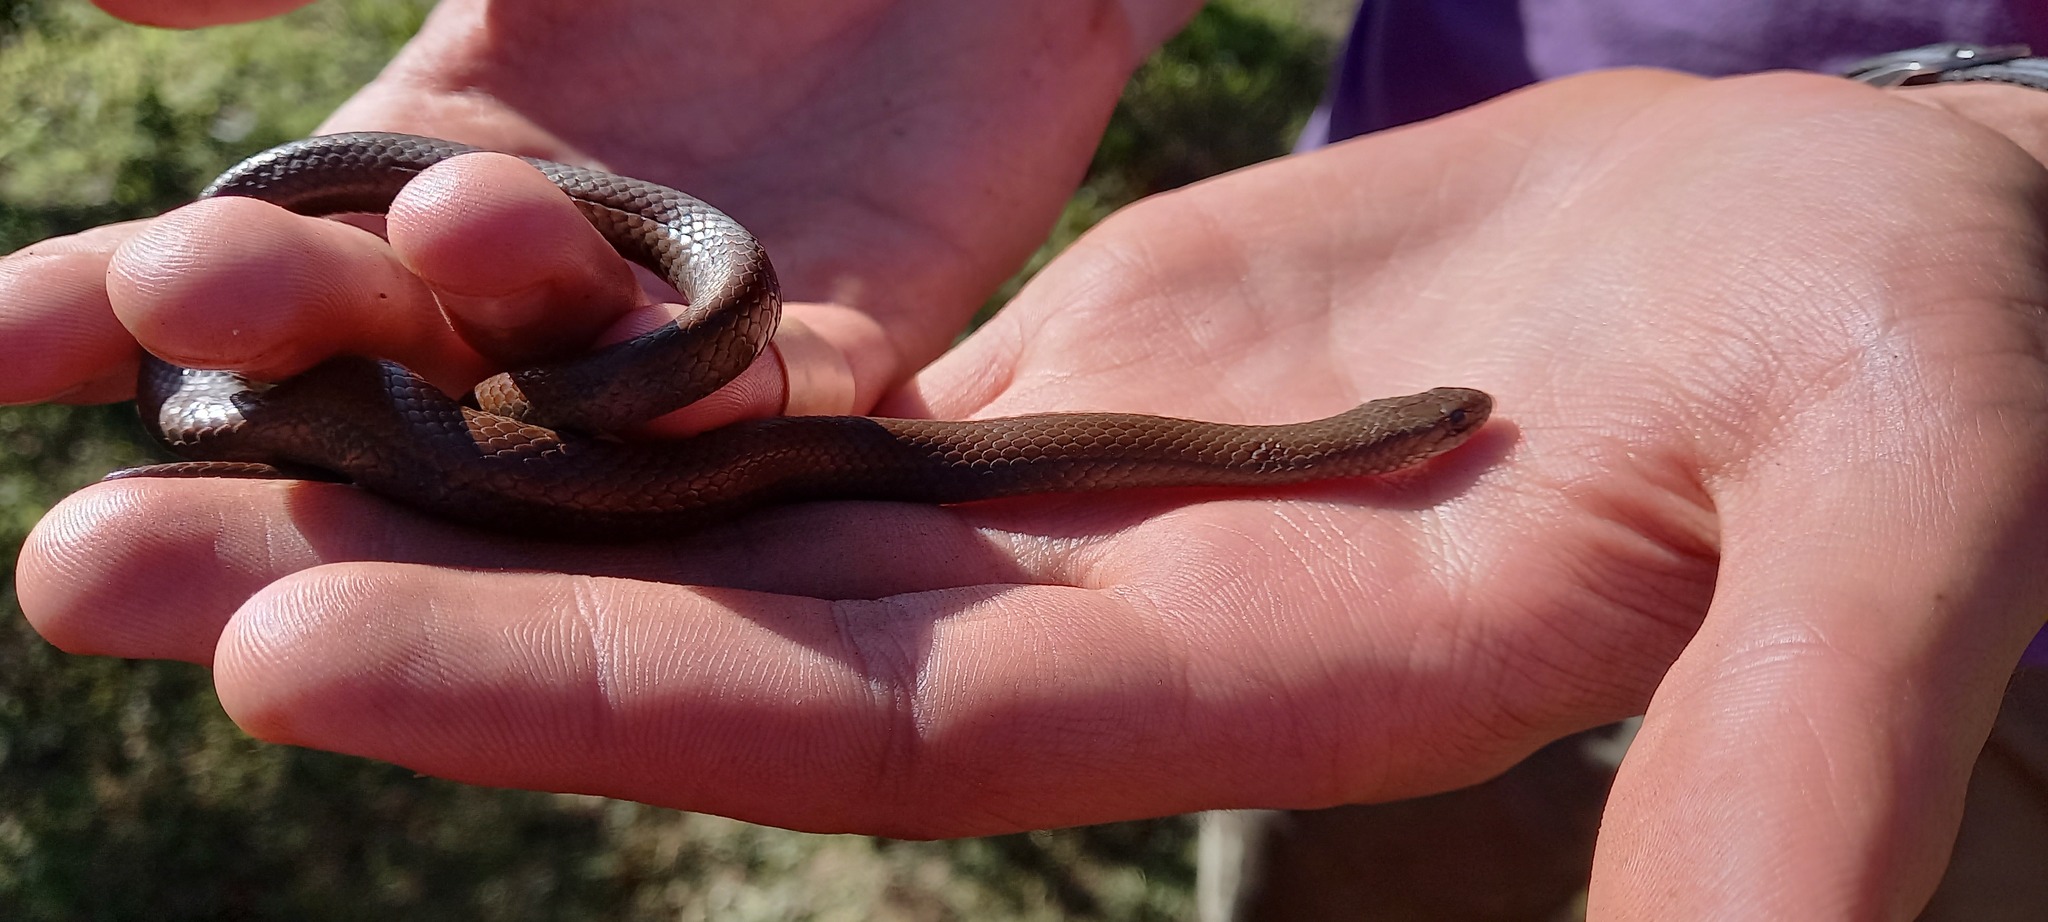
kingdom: Animalia
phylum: Chordata
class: Squamata
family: Pseudoxyrhophiidae
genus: Duberria
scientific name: Duberria lutrix
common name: Common slug eater
